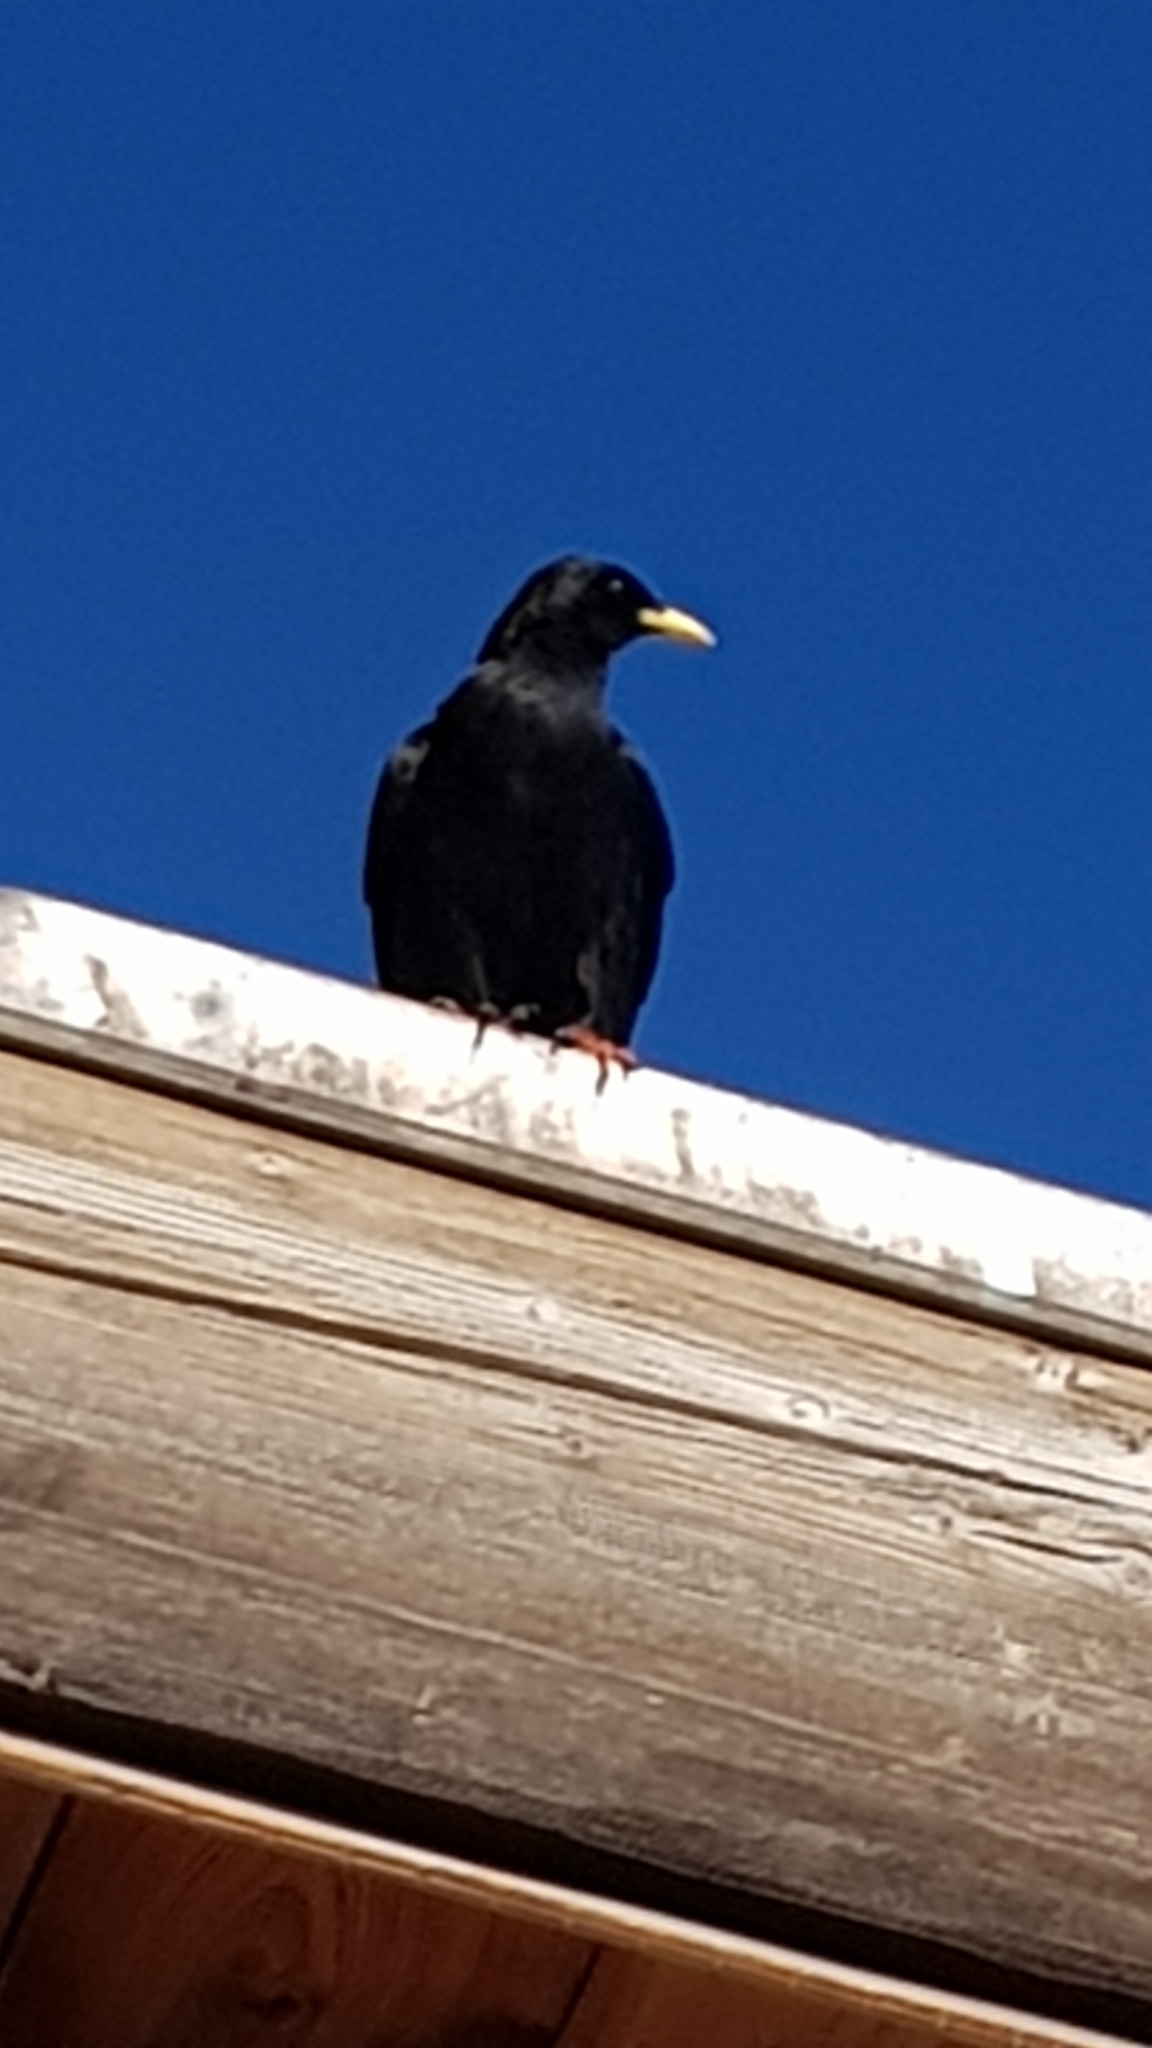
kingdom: Animalia
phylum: Chordata
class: Aves
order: Passeriformes
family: Corvidae
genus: Pyrrhocorax
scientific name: Pyrrhocorax graculus
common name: Alpine chough
